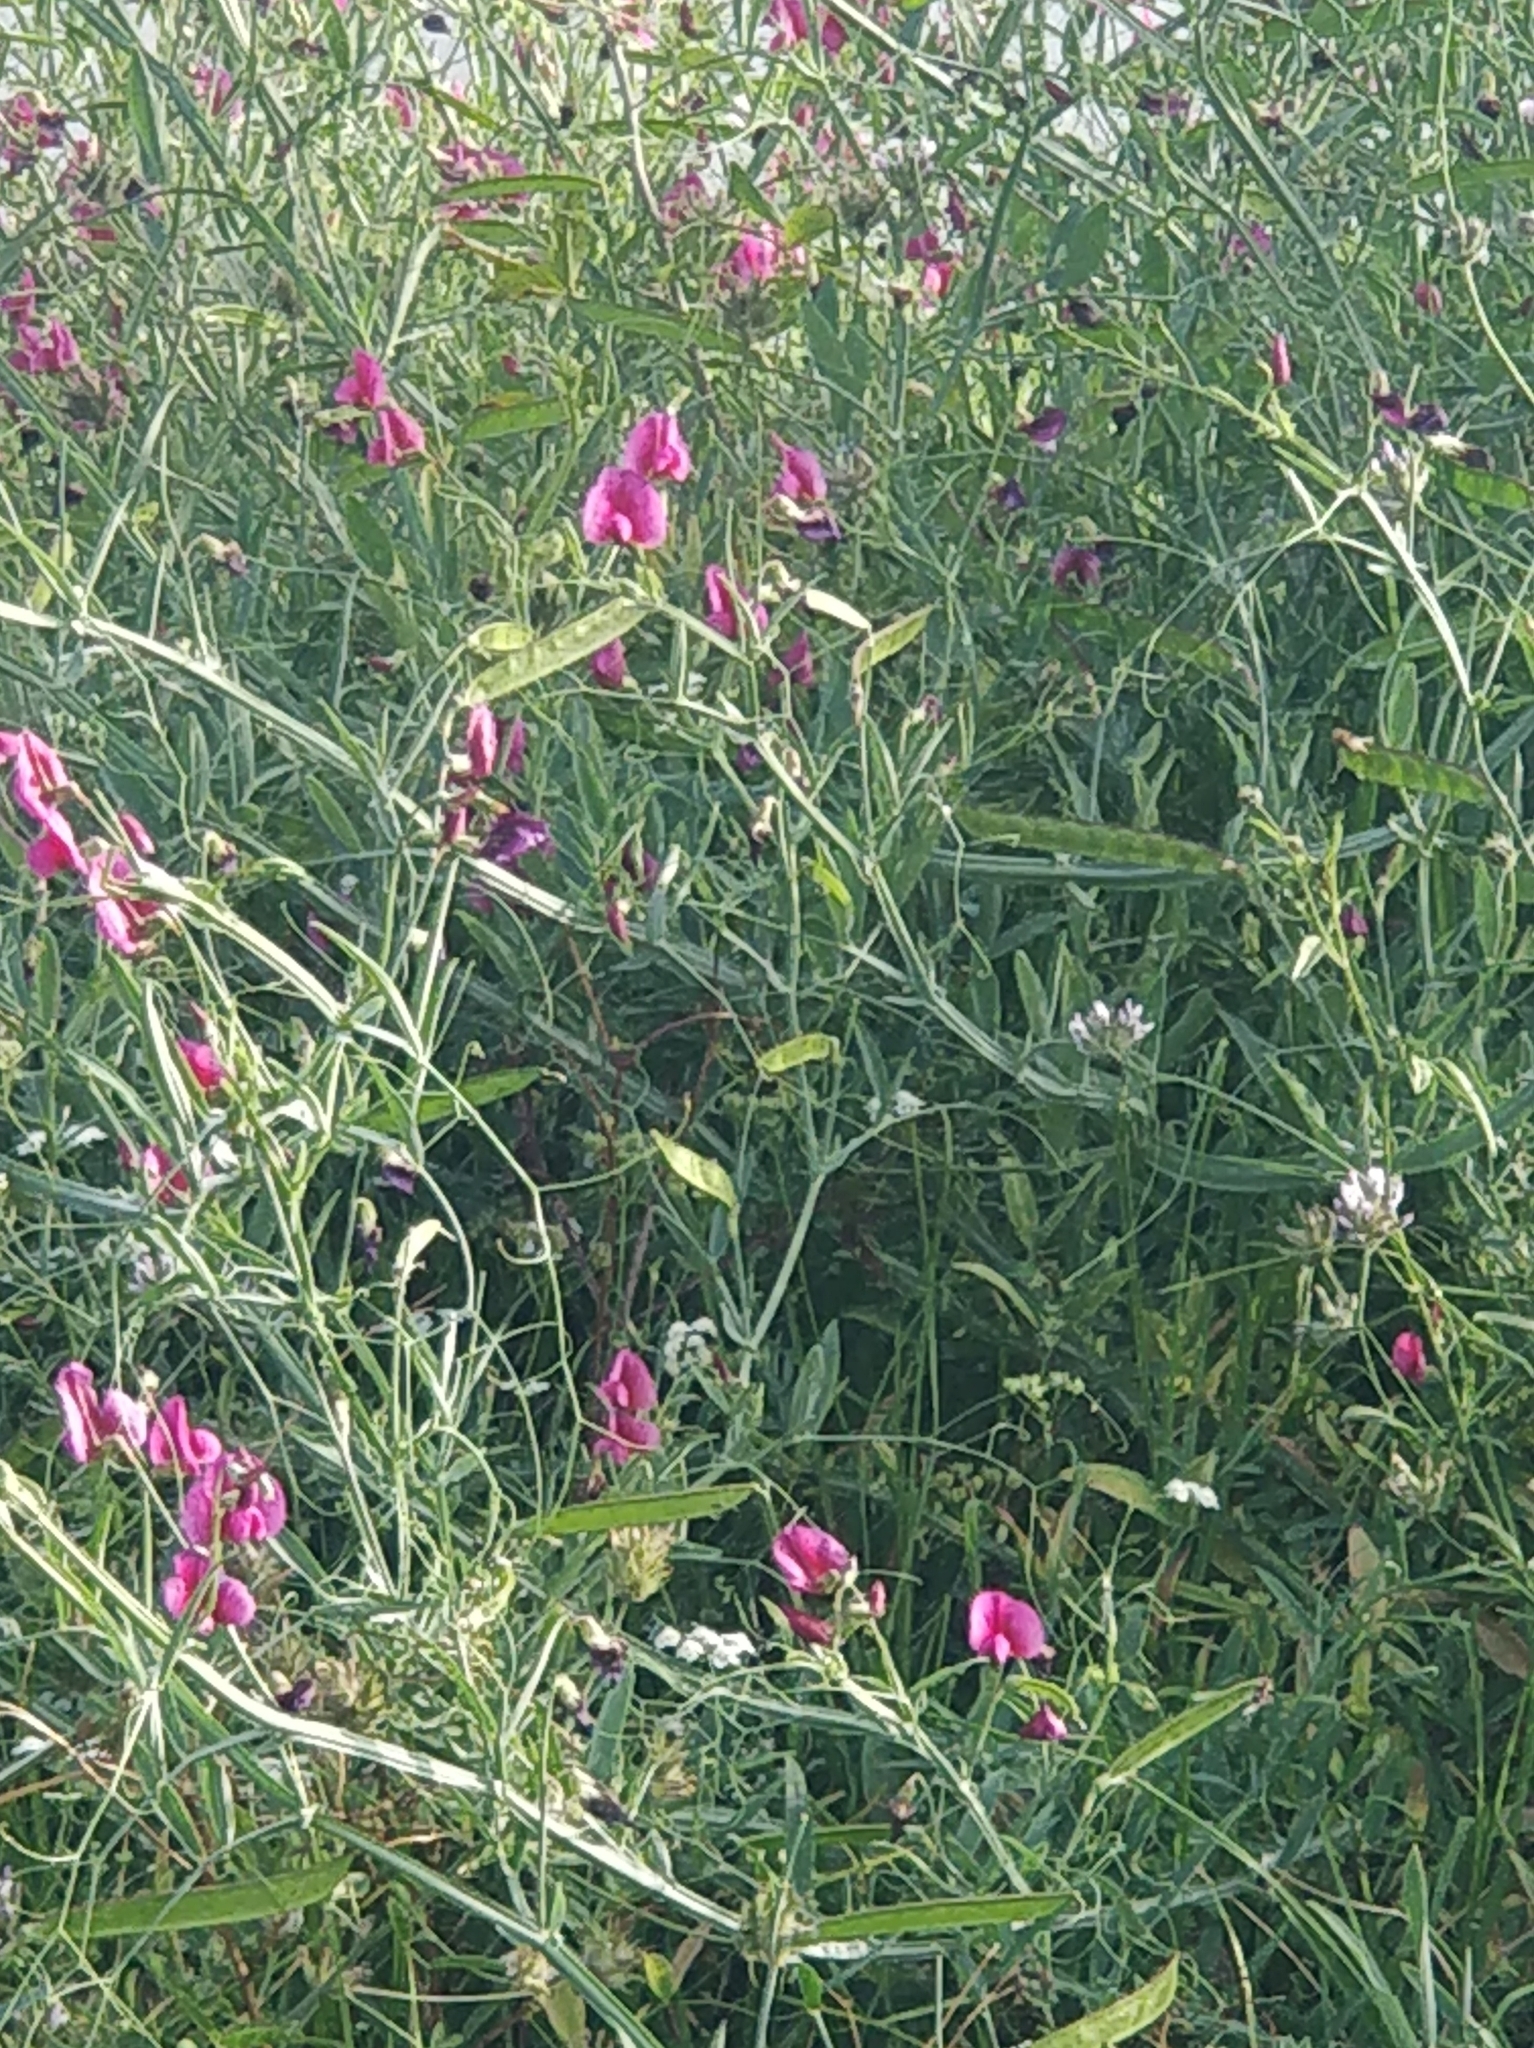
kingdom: Plantae
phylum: Tracheophyta
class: Magnoliopsida
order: Fabales
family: Fabaceae
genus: Lathyrus
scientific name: Lathyrus tingitanus
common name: Tangier pea
